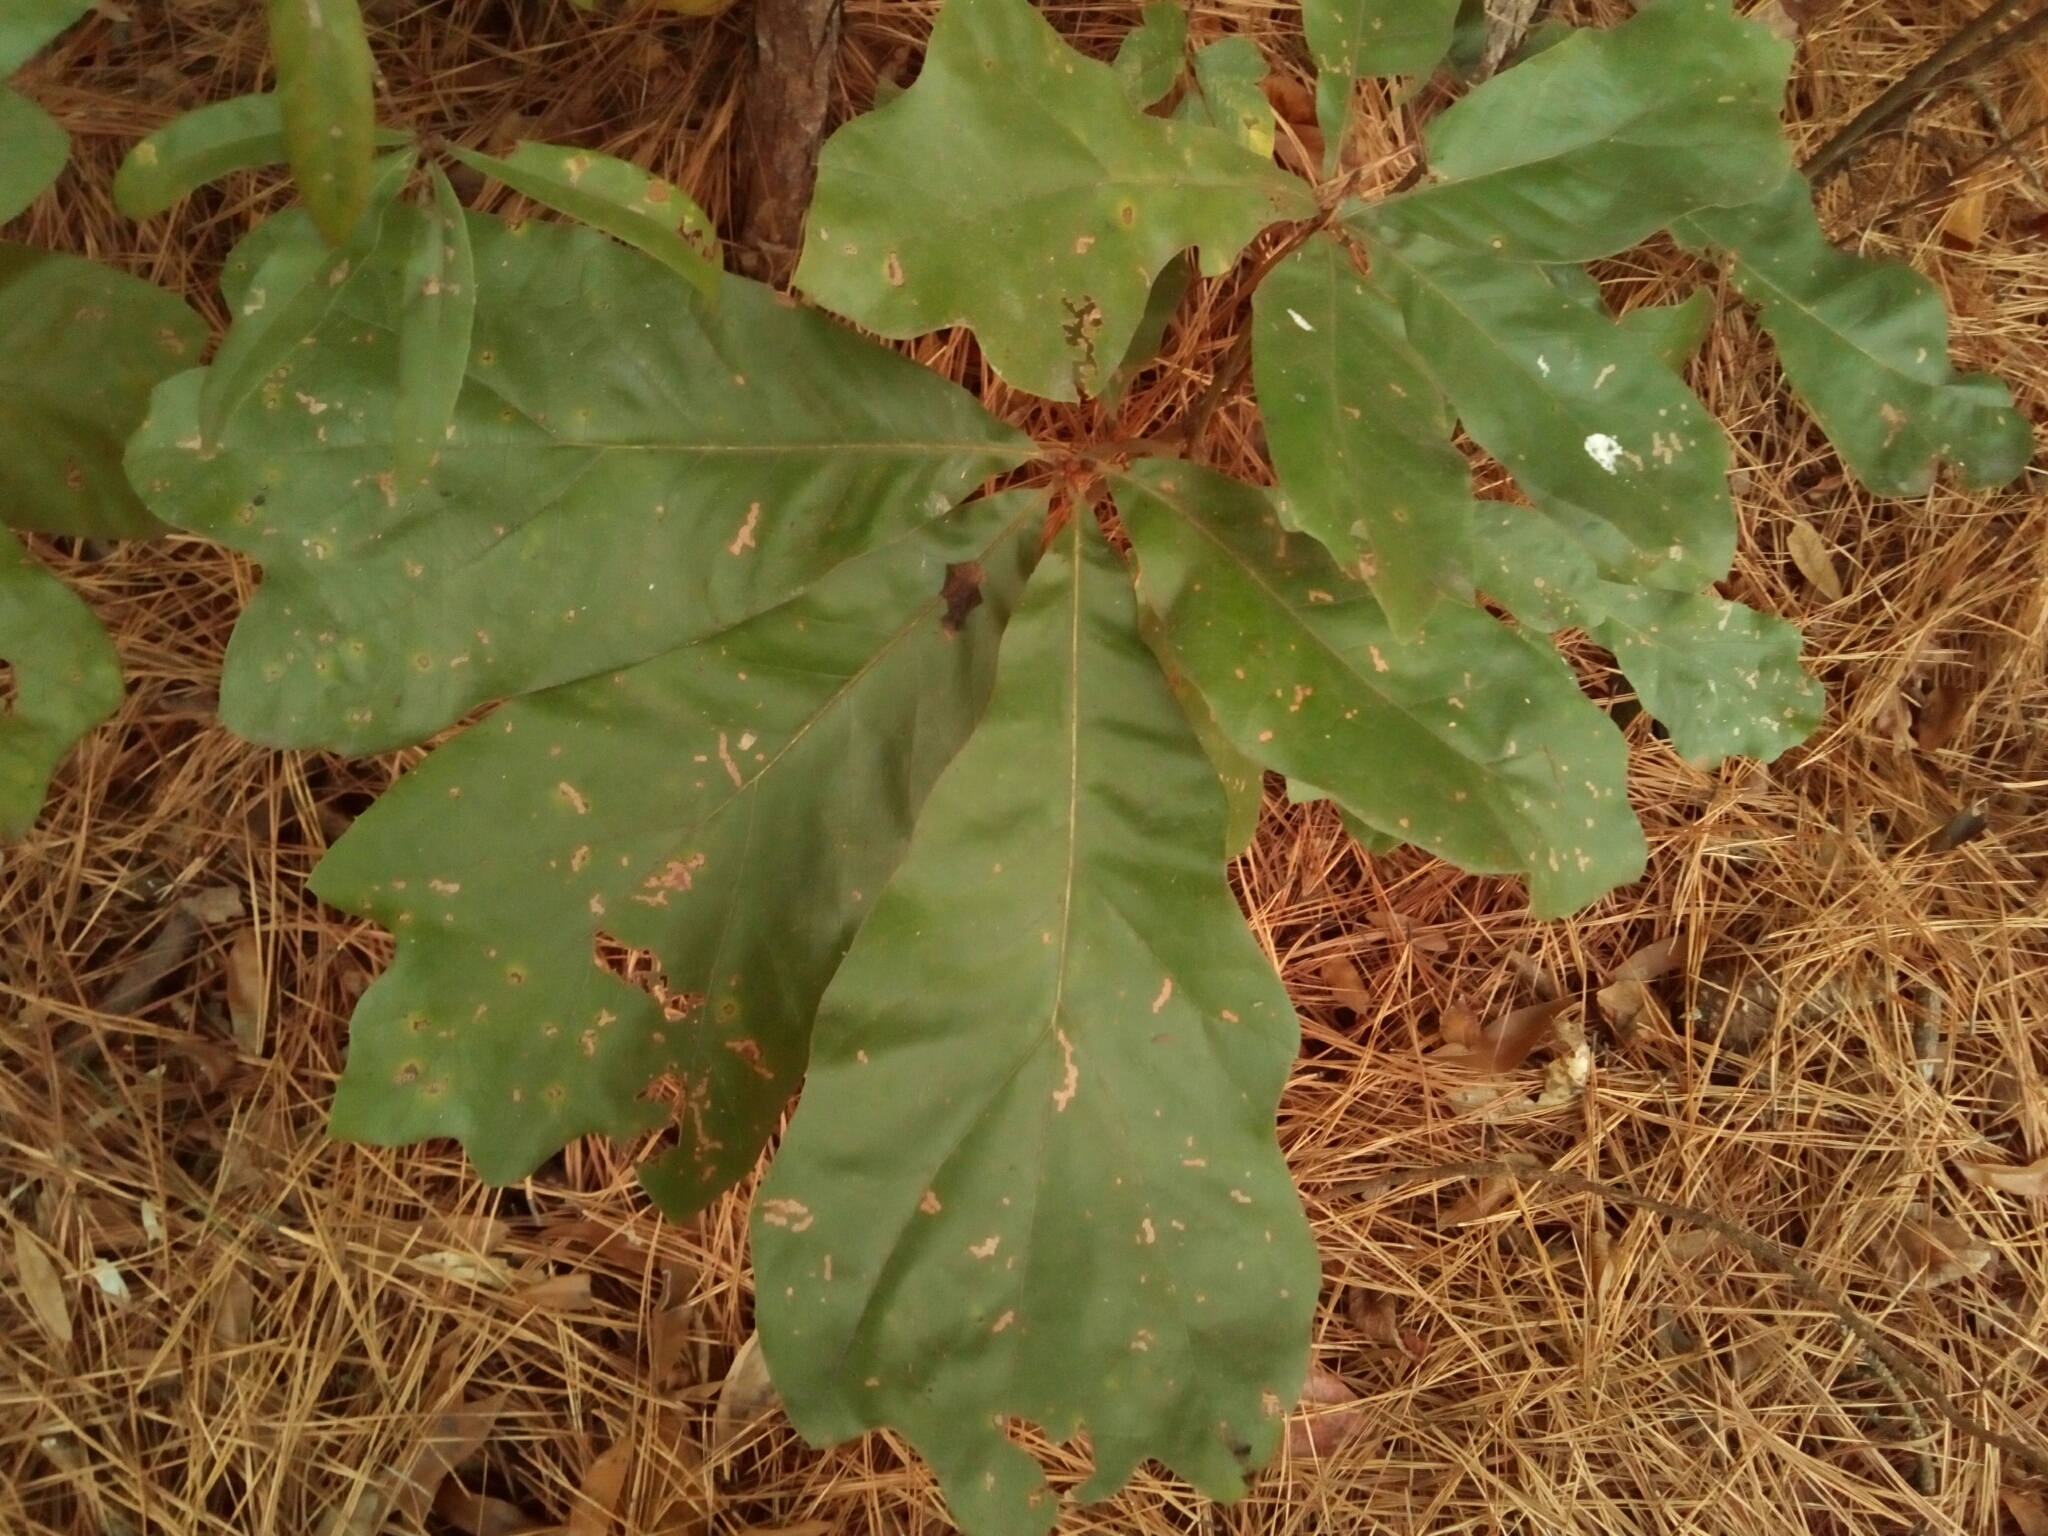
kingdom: Plantae
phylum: Tracheophyta
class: Magnoliopsida
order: Fagales
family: Fagaceae
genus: Quercus
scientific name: Quercus falcata
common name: Southern red oak
